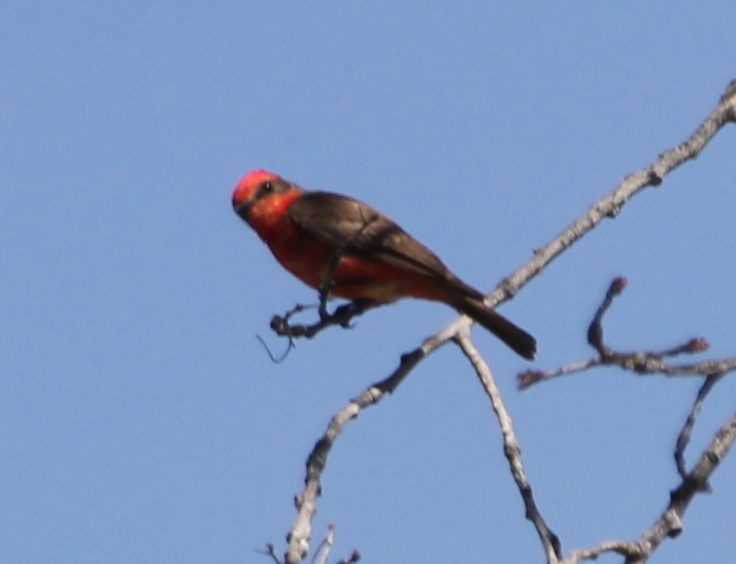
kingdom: Animalia
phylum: Chordata
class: Aves
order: Passeriformes
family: Tyrannidae
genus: Pyrocephalus
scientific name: Pyrocephalus rubinus
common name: Vermilion flycatcher
